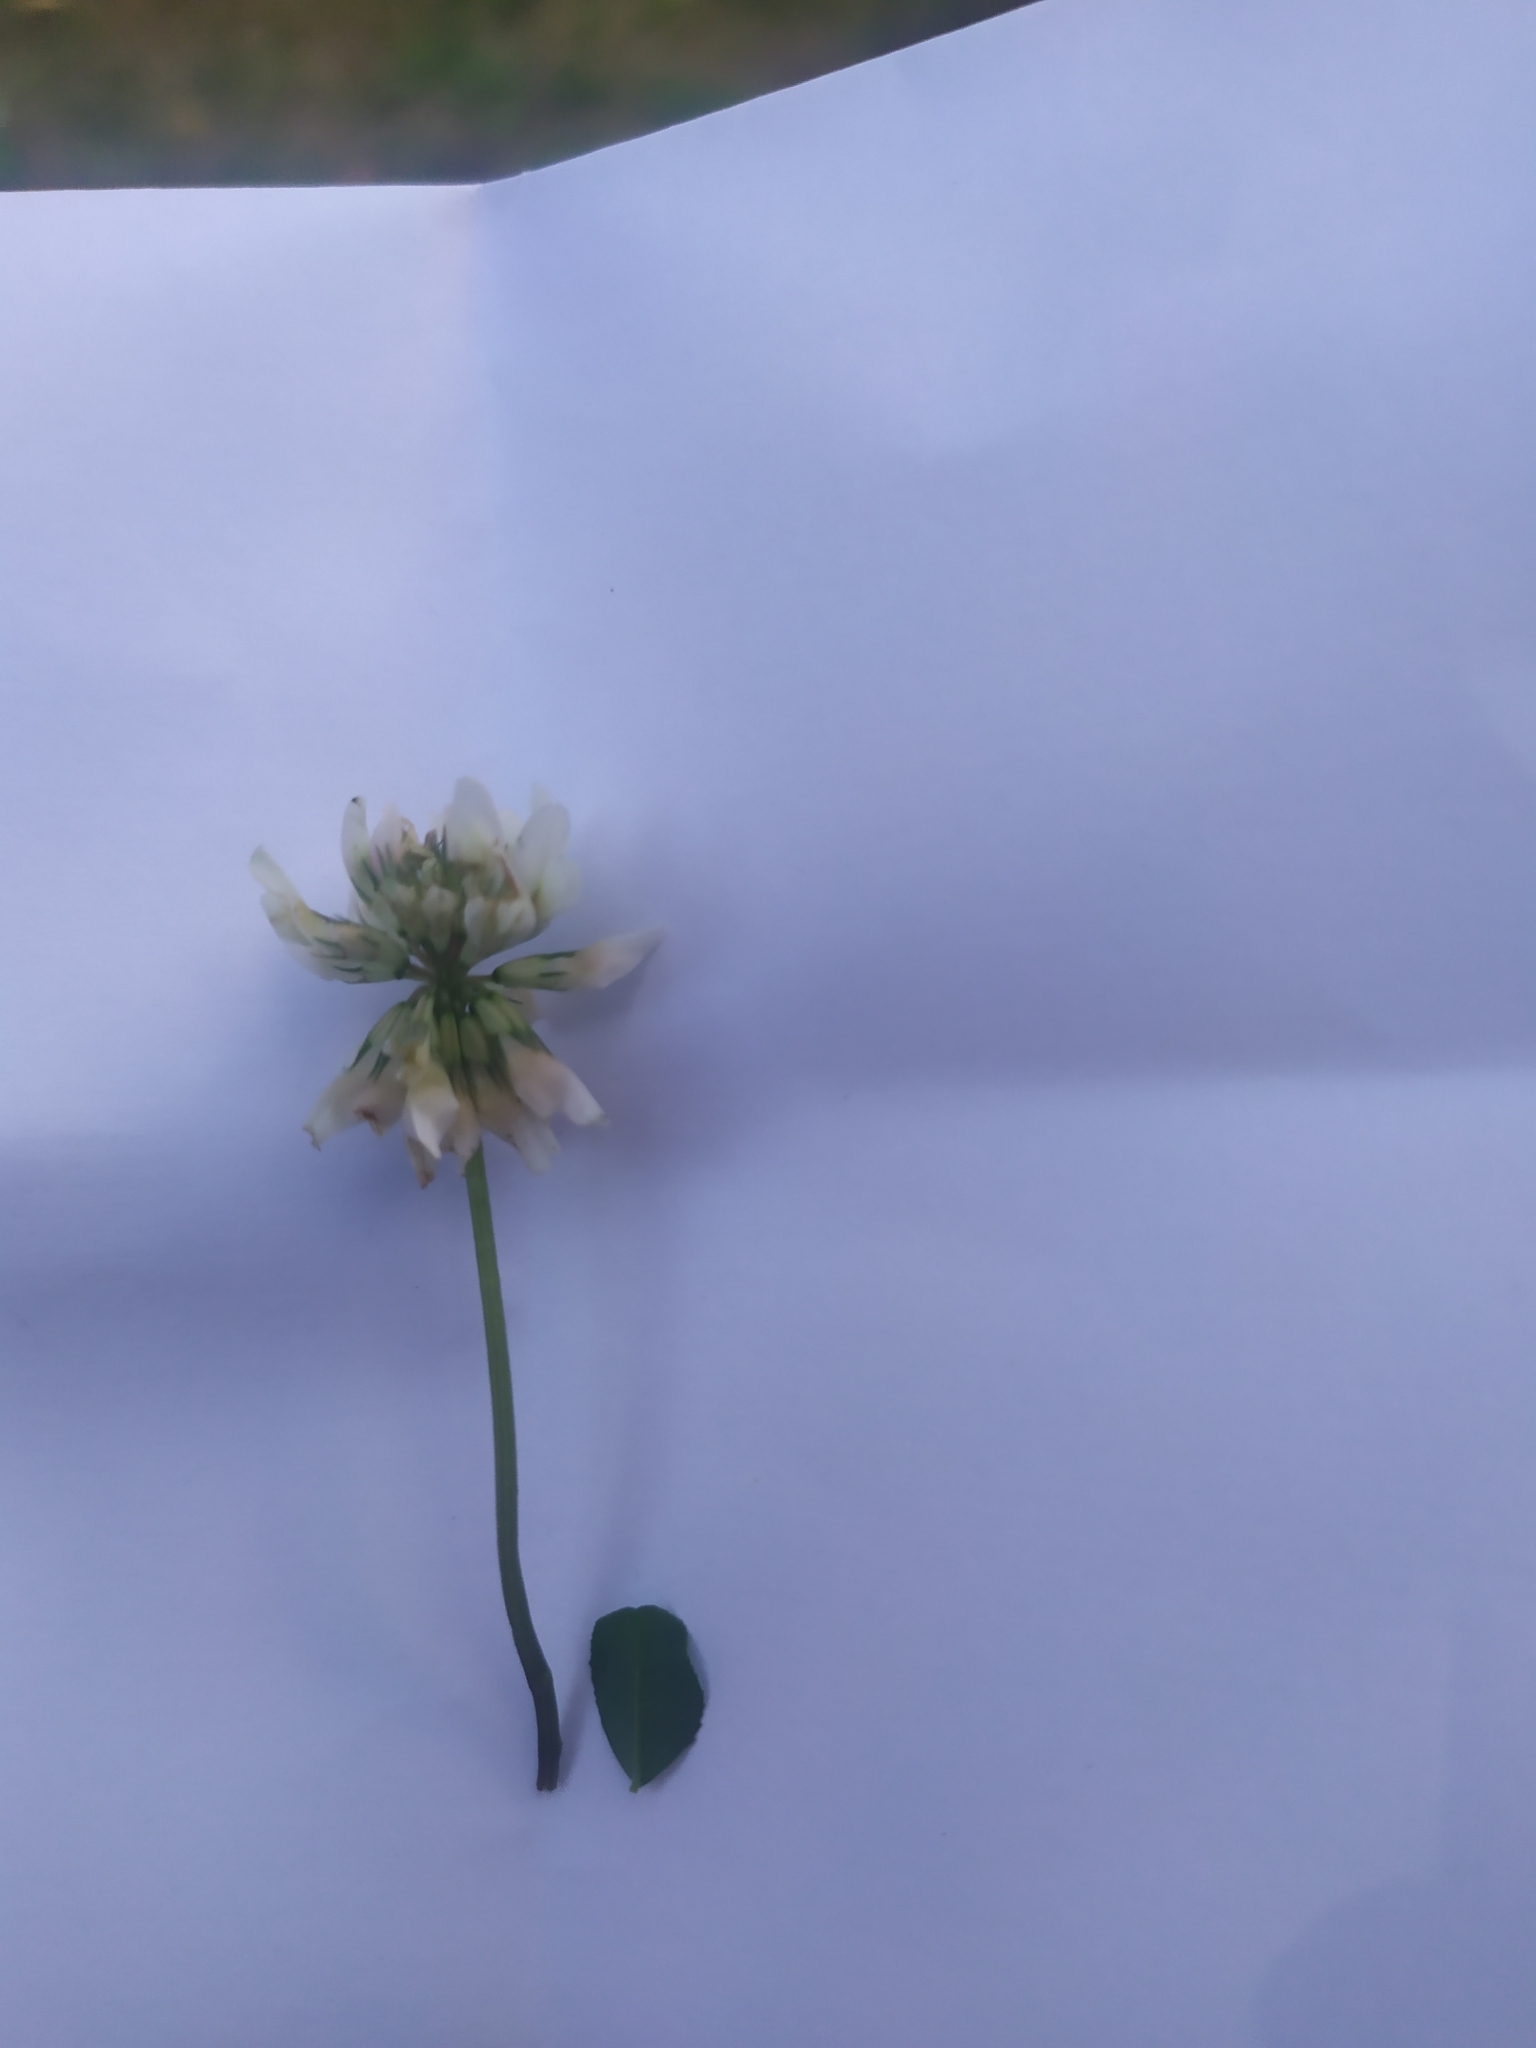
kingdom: Plantae
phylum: Tracheophyta
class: Magnoliopsida
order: Fabales
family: Fabaceae
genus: Trifolium
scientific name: Trifolium repens
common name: White clover
